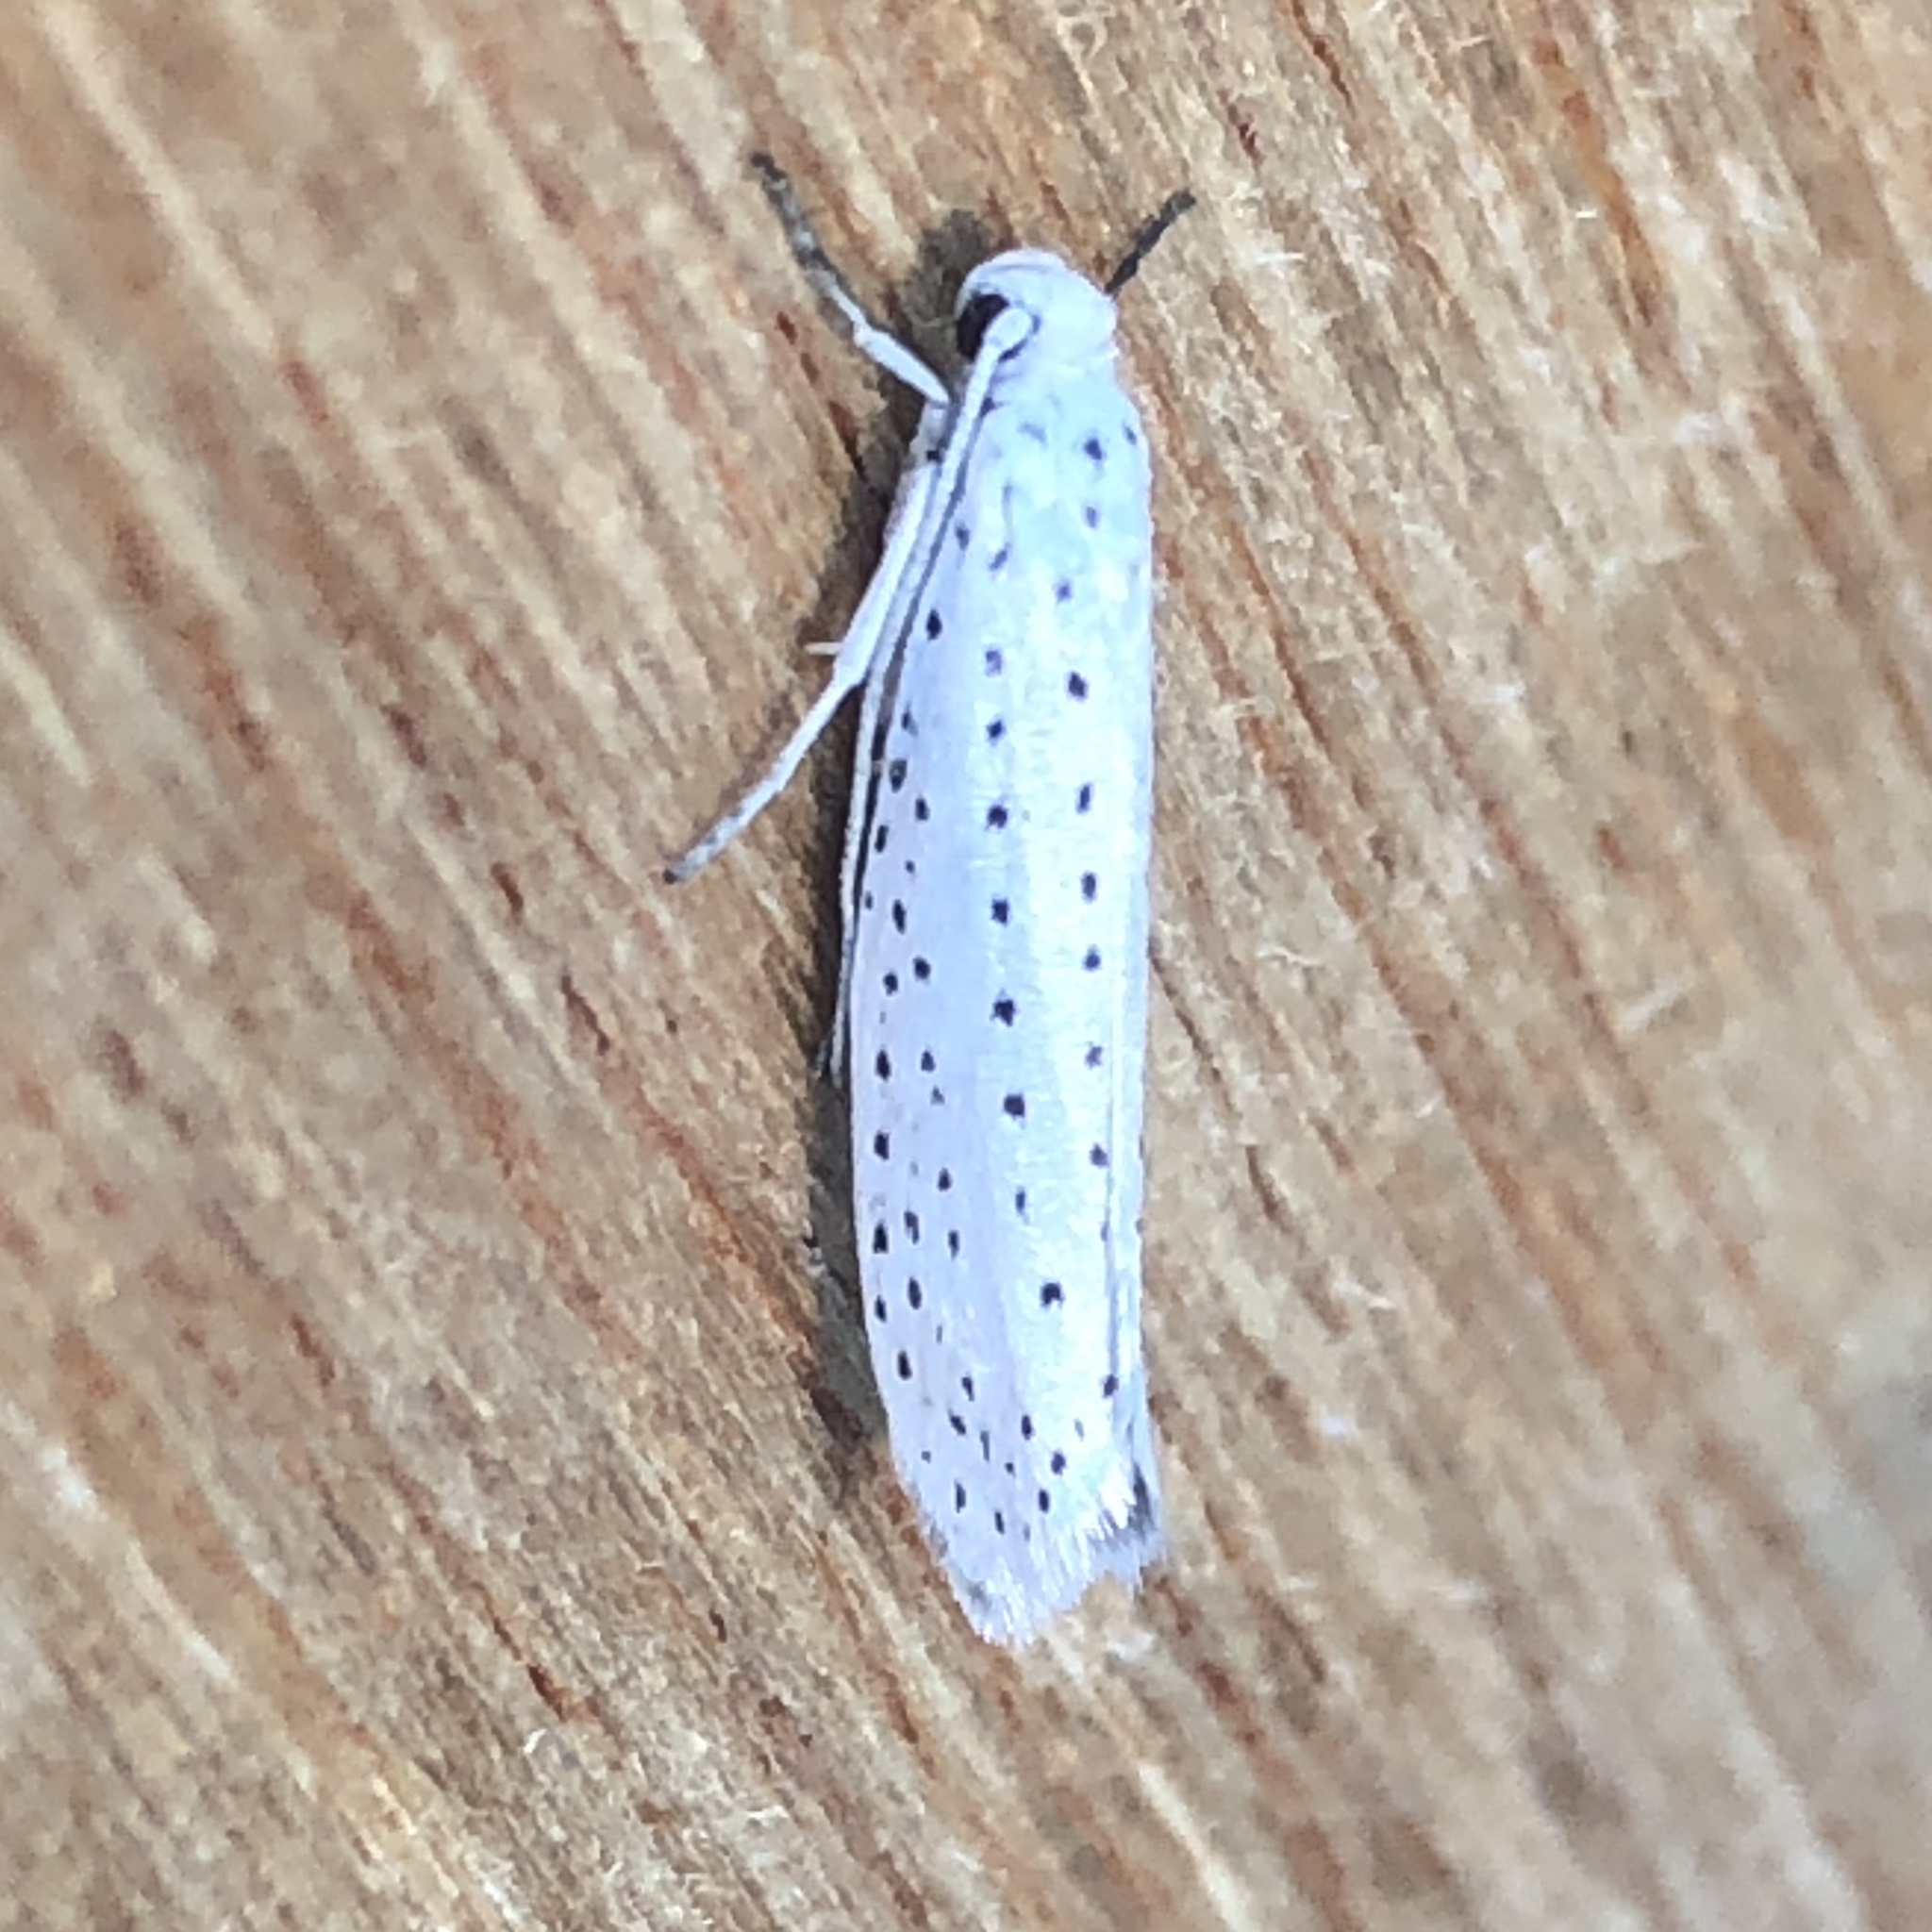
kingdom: Animalia
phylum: Arthropoda
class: Insecta
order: Lepidoptera
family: Yponomeutidae
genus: Yponomeuta
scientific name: Yponomeuta evonymella
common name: Bird-cherry ermine
